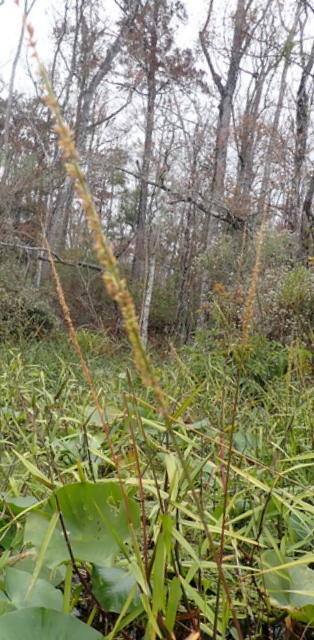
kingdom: Plantae
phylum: Tracheophyta
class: Liliopsida
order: Poales
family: Poaceae
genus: Sacciolepis
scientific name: Sacciolepis striata
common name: American cupscale
